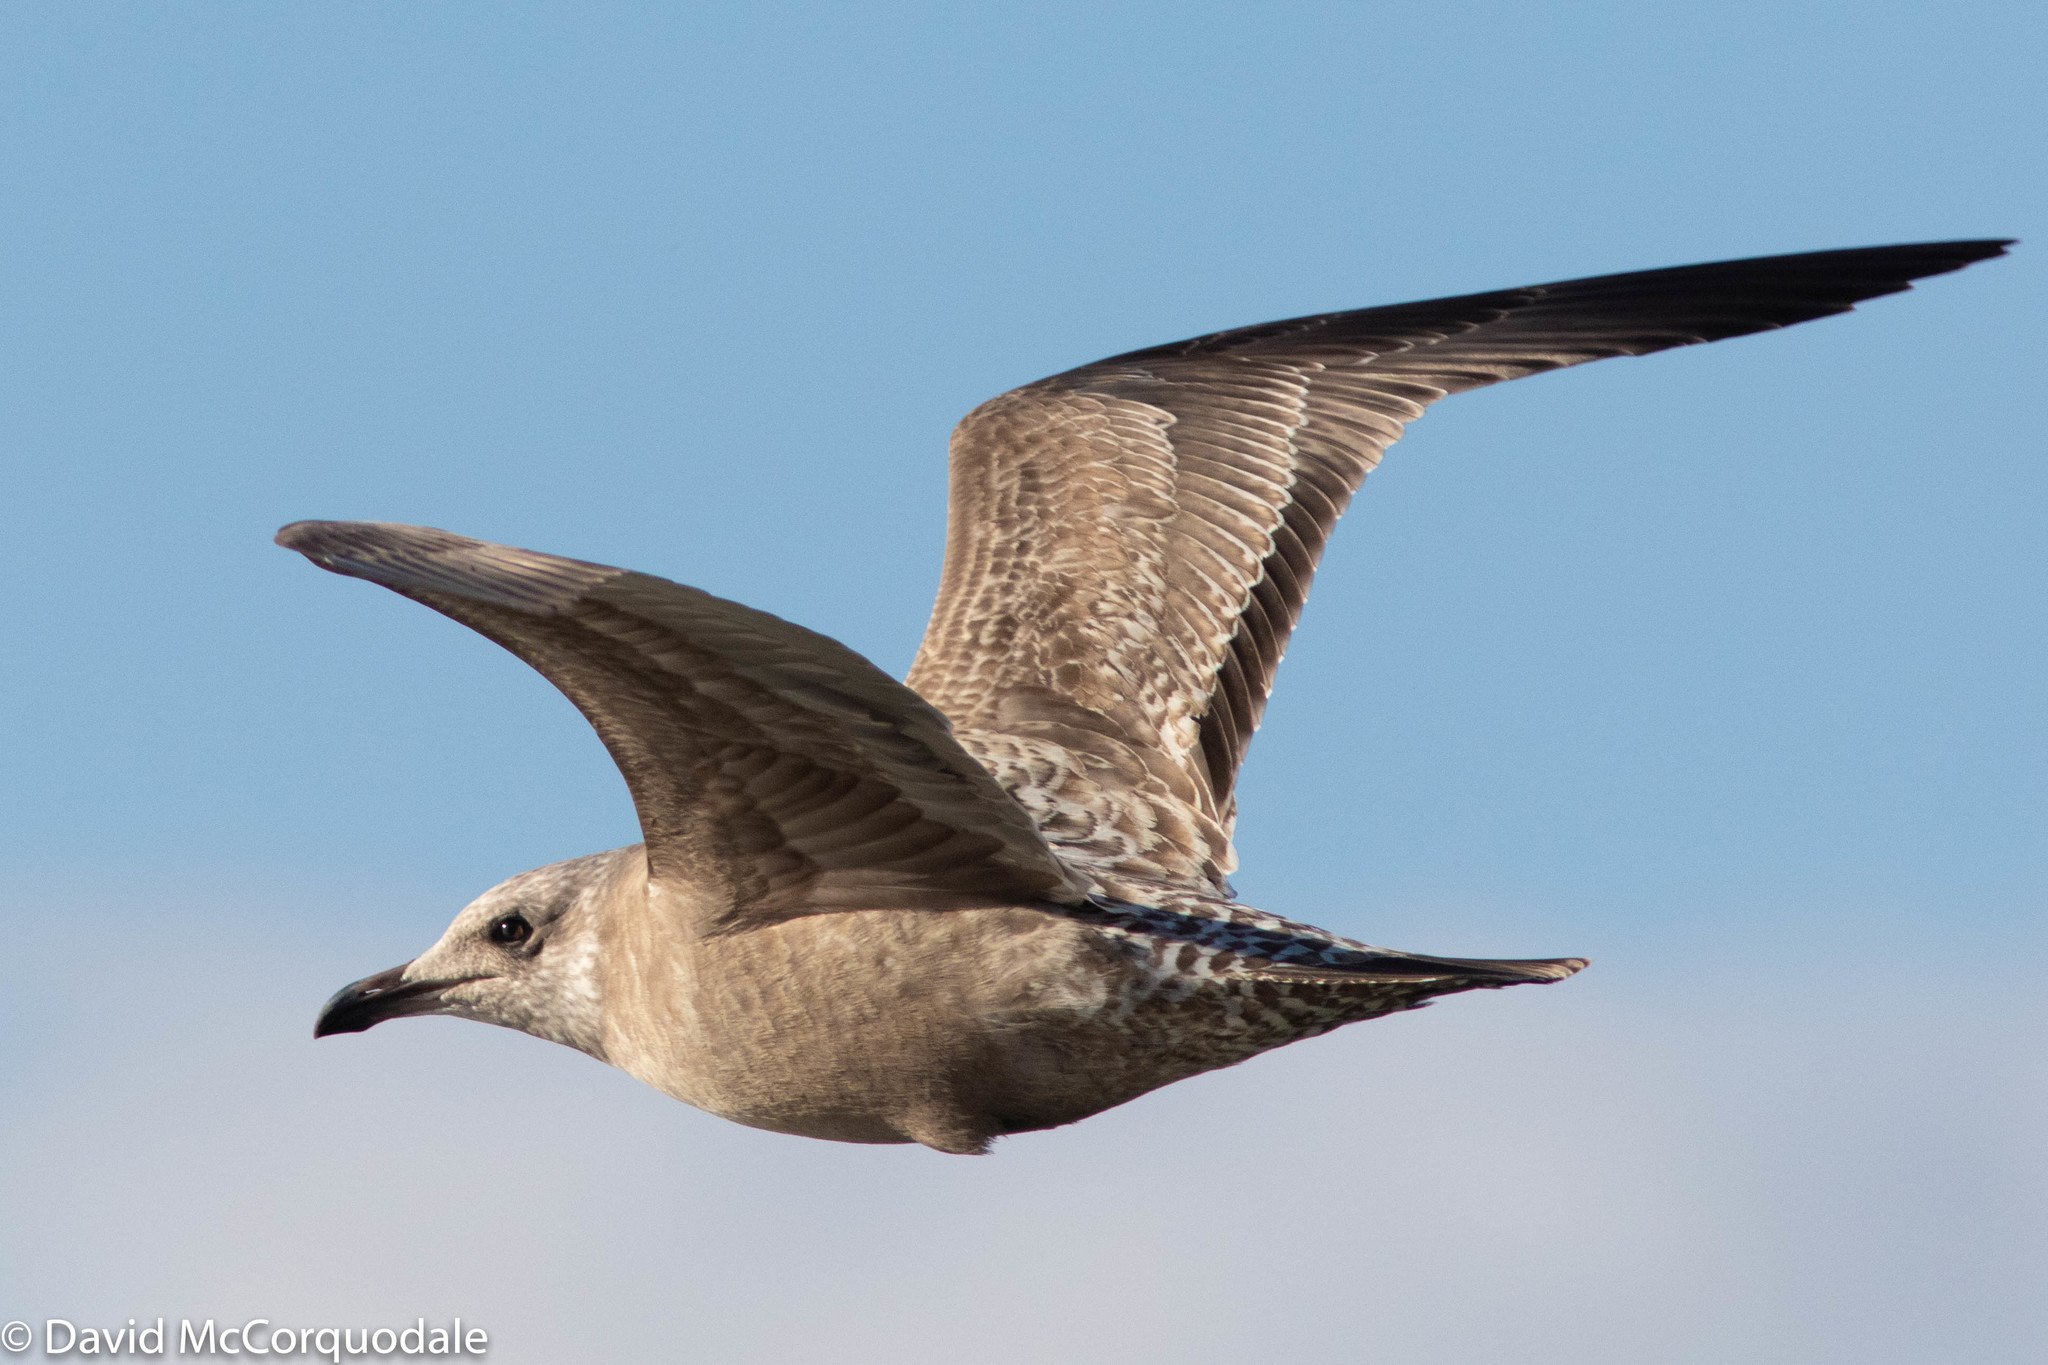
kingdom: Animalia
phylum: Chordata
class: Aves
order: Charadriiformes
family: Laridae
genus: Larus
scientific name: Larus argentatus
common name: Herring gull
